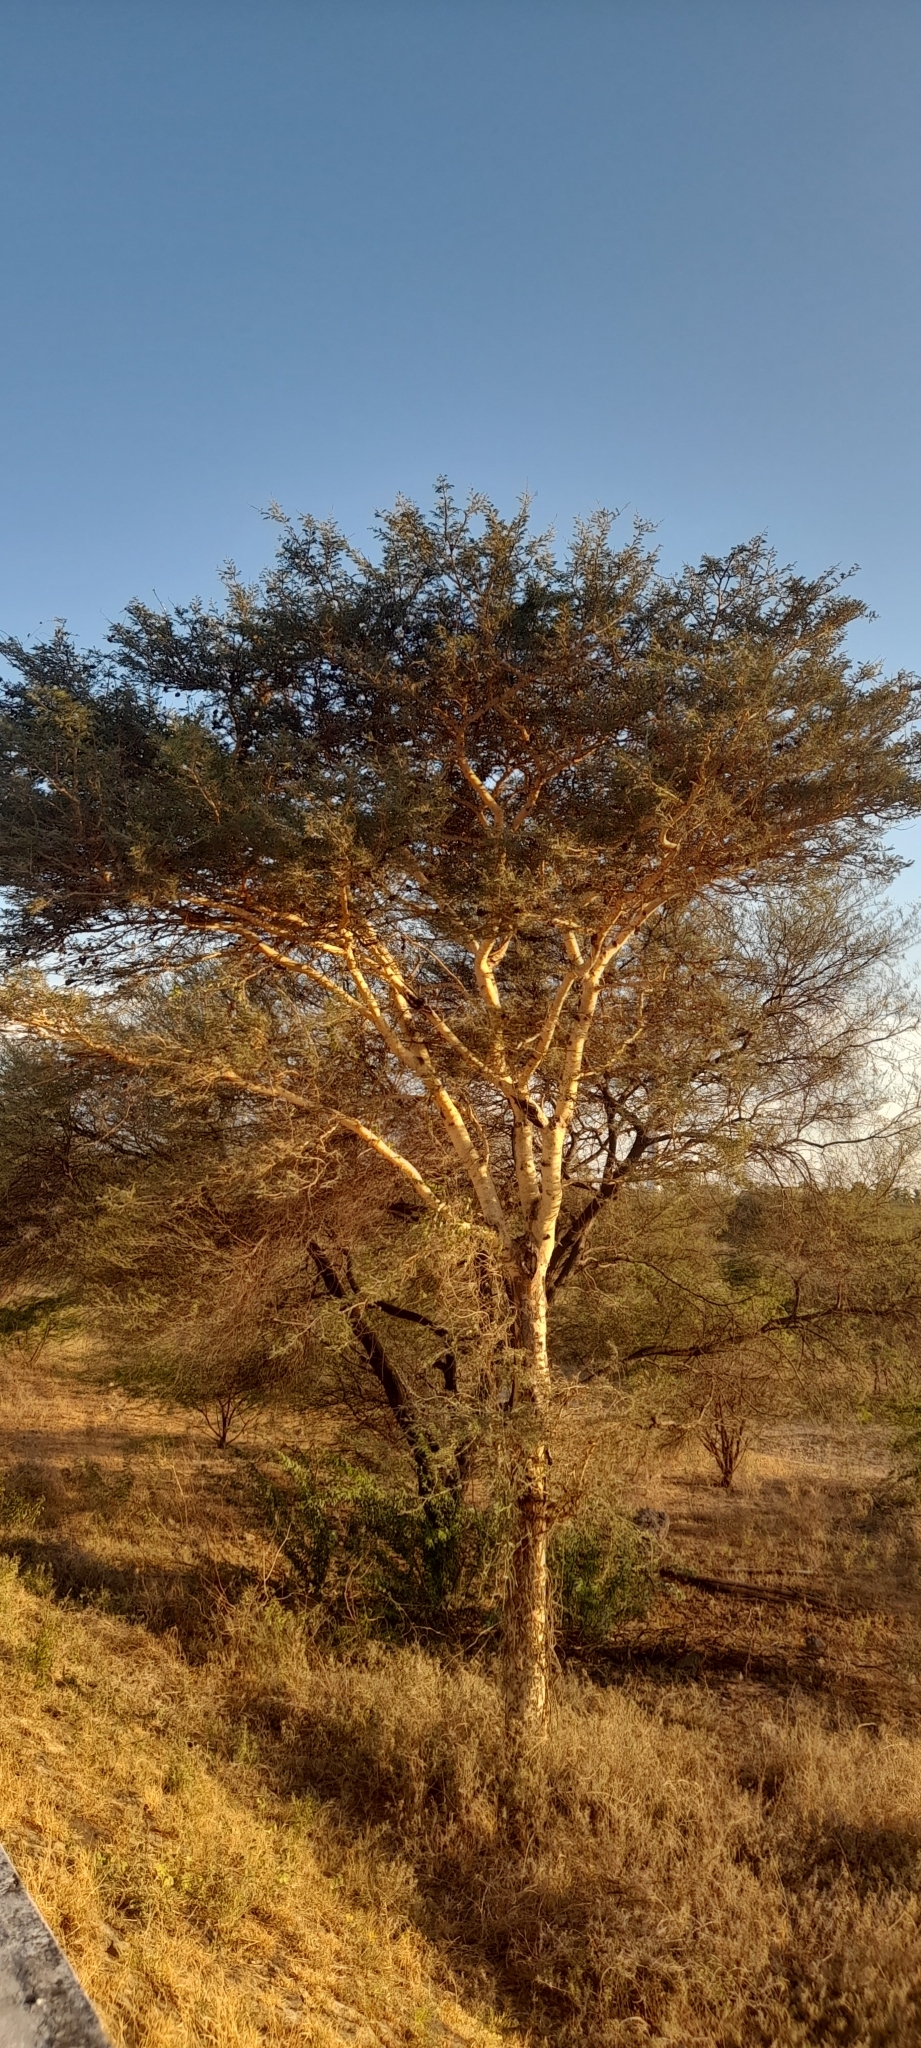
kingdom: Plantae
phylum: Tracheophyta
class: Magnoliopsida
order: Fabales
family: Fabaceae
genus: Vachellia
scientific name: Vachellia leucophloea
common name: Distiller's acacia
